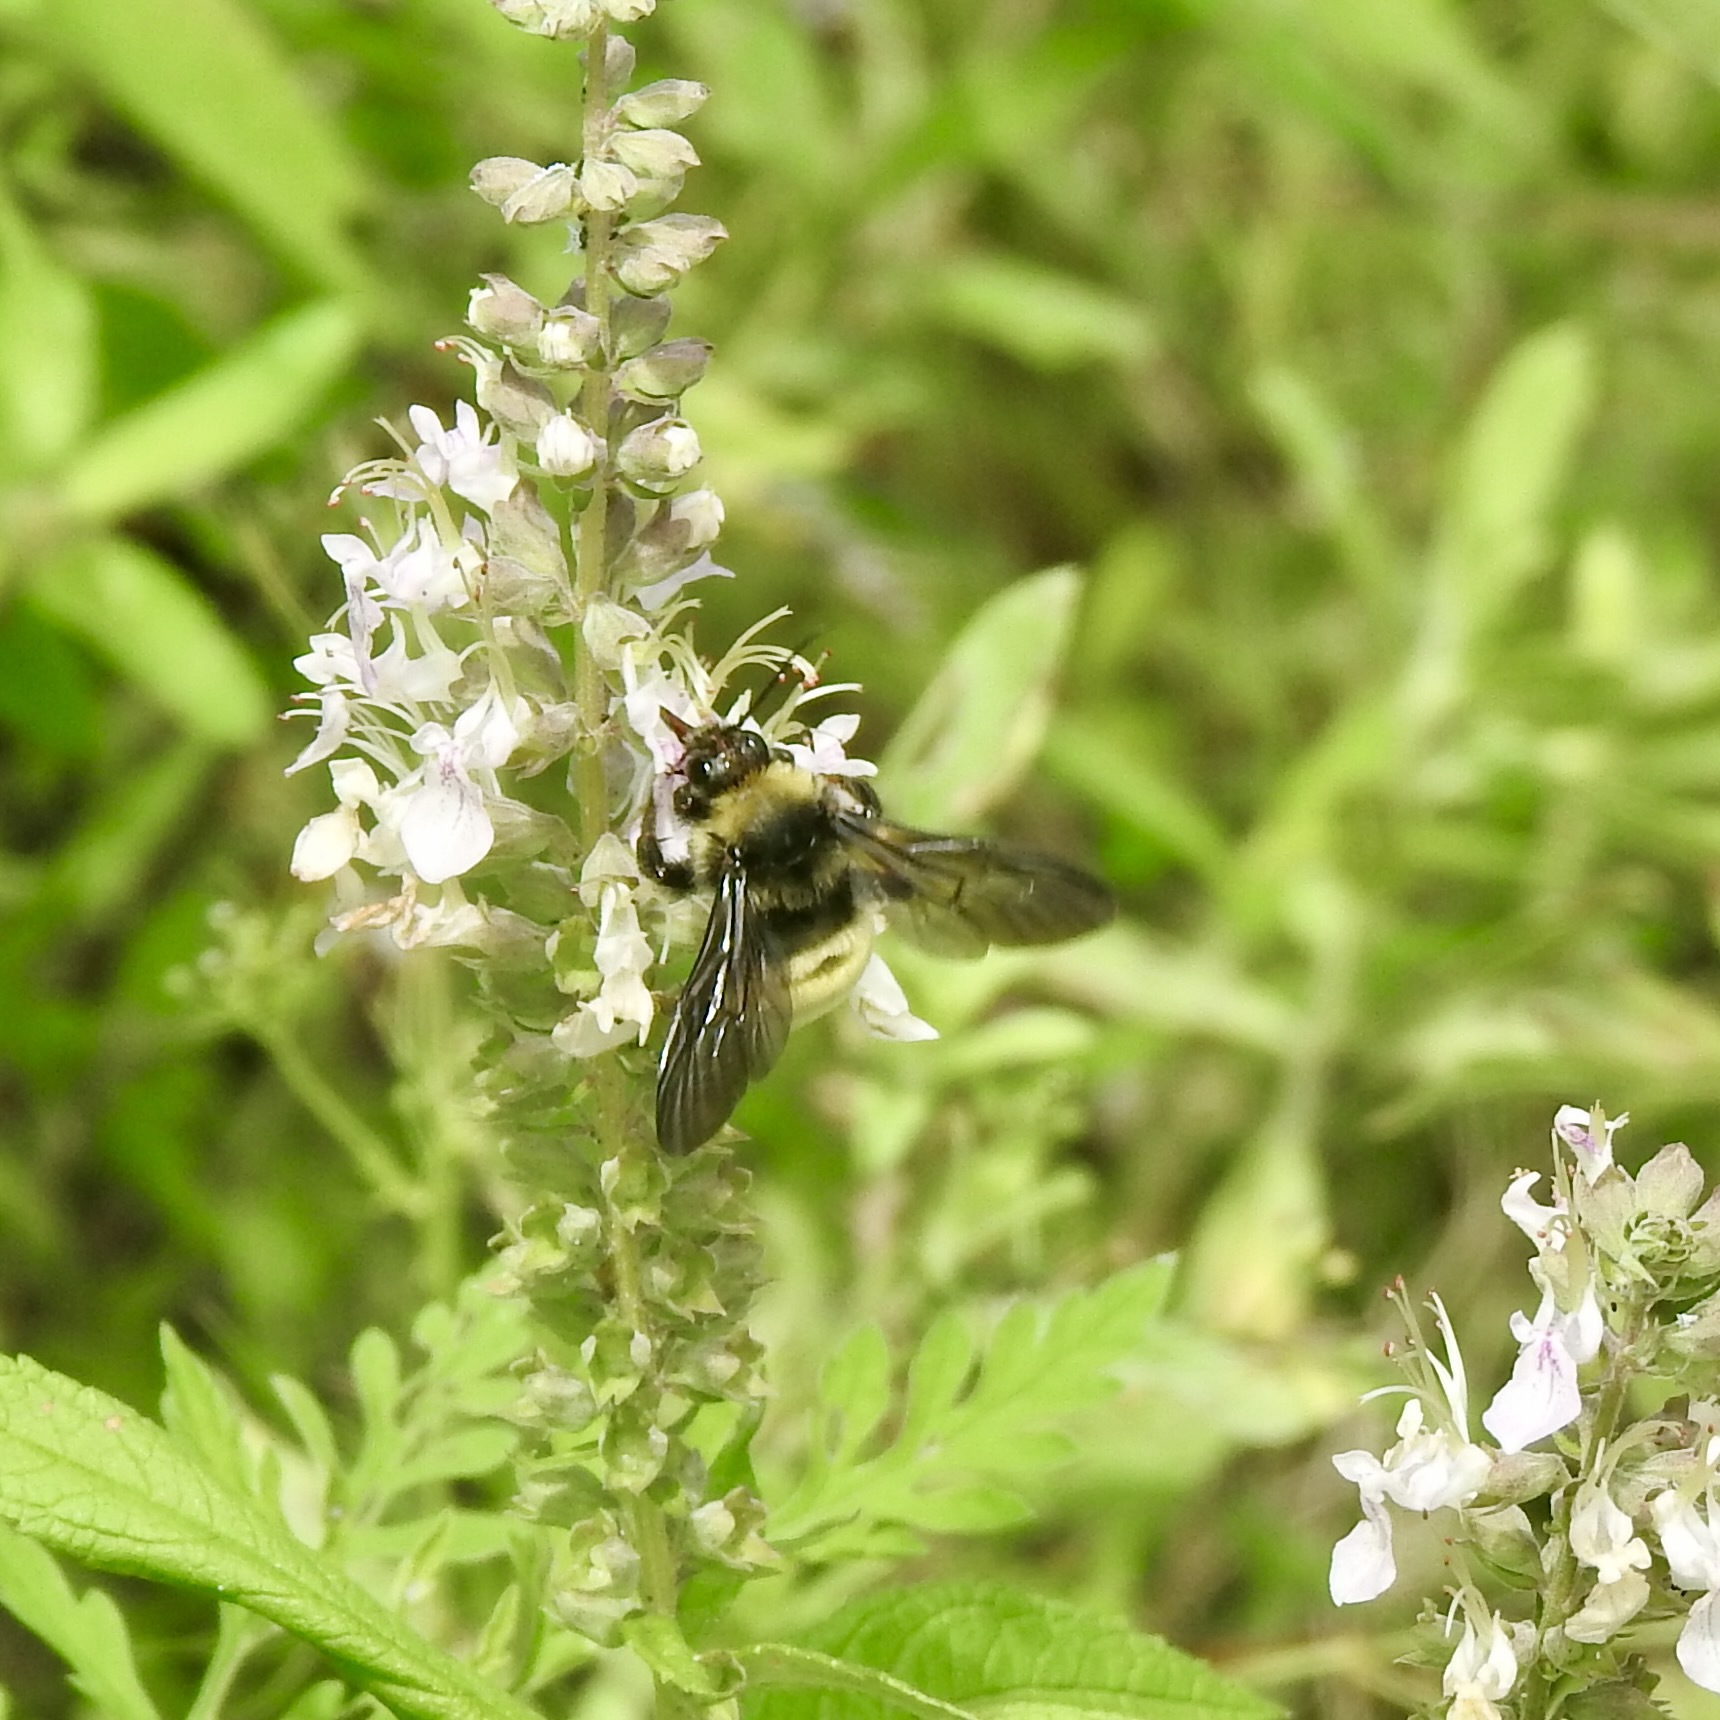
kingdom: Animalia
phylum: Arthropoda
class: Insecta
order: Hymenoptera
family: Apidae
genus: Bombus
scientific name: Bombus pensylvanicus
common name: Bumble bee
